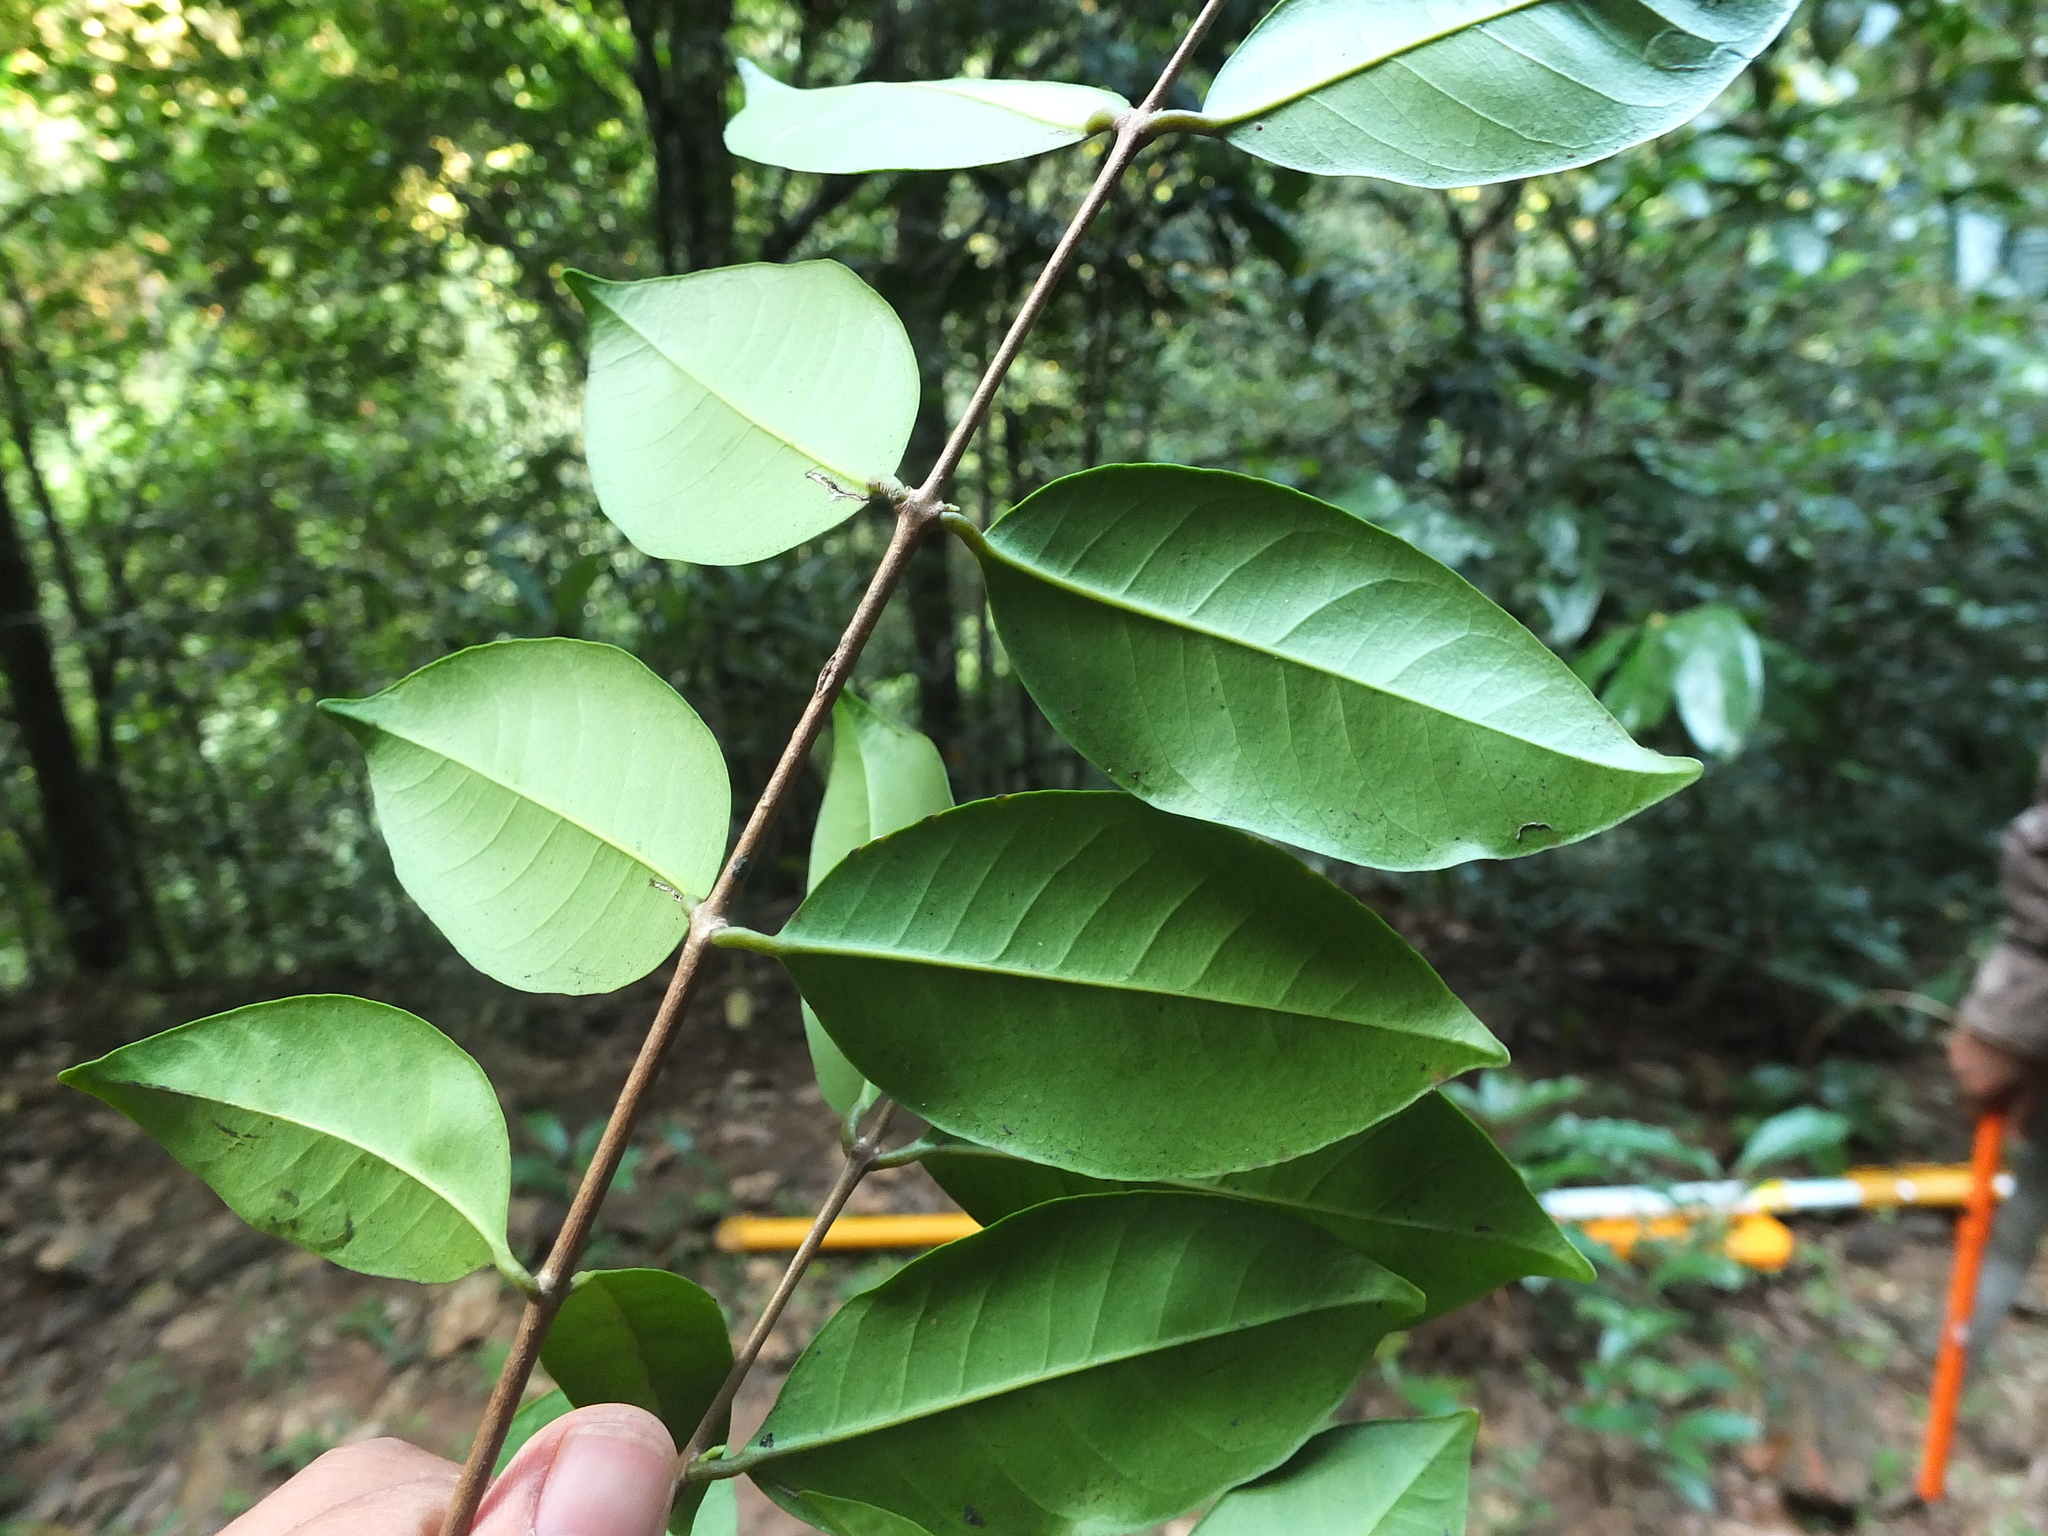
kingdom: Plantae
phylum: Tracheophyta
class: Magnoliopsida
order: Myrtales
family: Myrtaceae
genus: Syzygium
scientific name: Syzygium laetum
